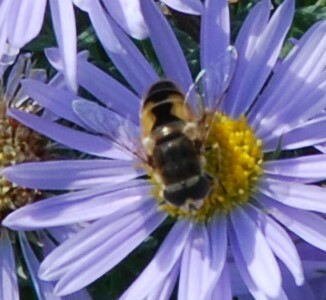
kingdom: Animalia
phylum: Arthropoda
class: Insecta
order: Diptera
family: Syrphidae
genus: Eristalis
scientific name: Eristalis arbustorum
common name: Hover fly
